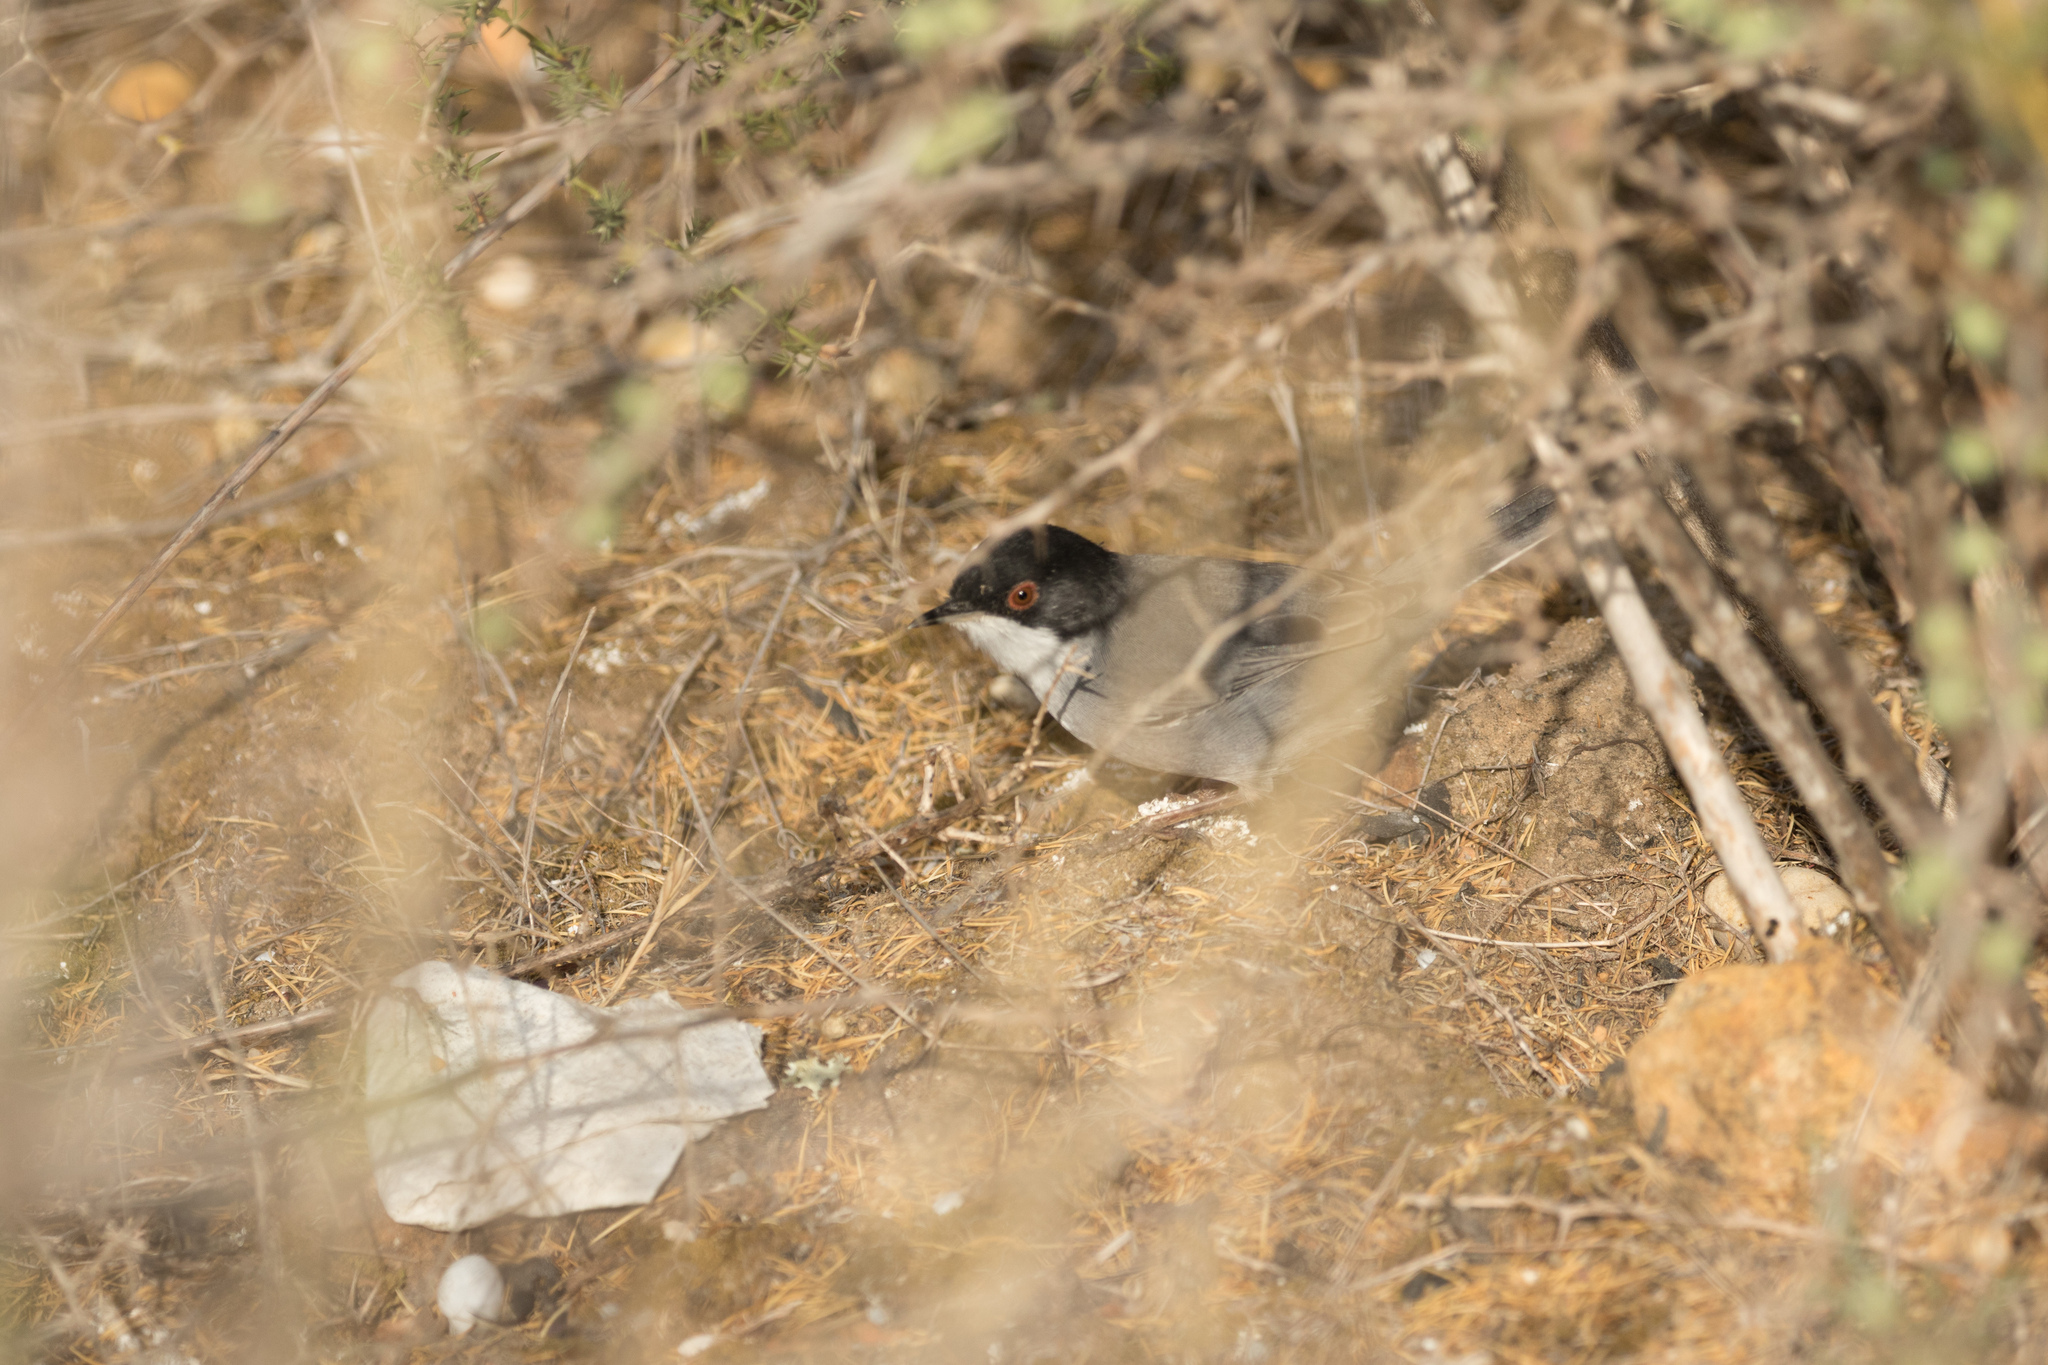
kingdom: Animalia
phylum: Chordata
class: Aves
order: Passeriformes
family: Sylviidae
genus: Curruca
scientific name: Curruca melanocephala
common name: Sardinian warbler
